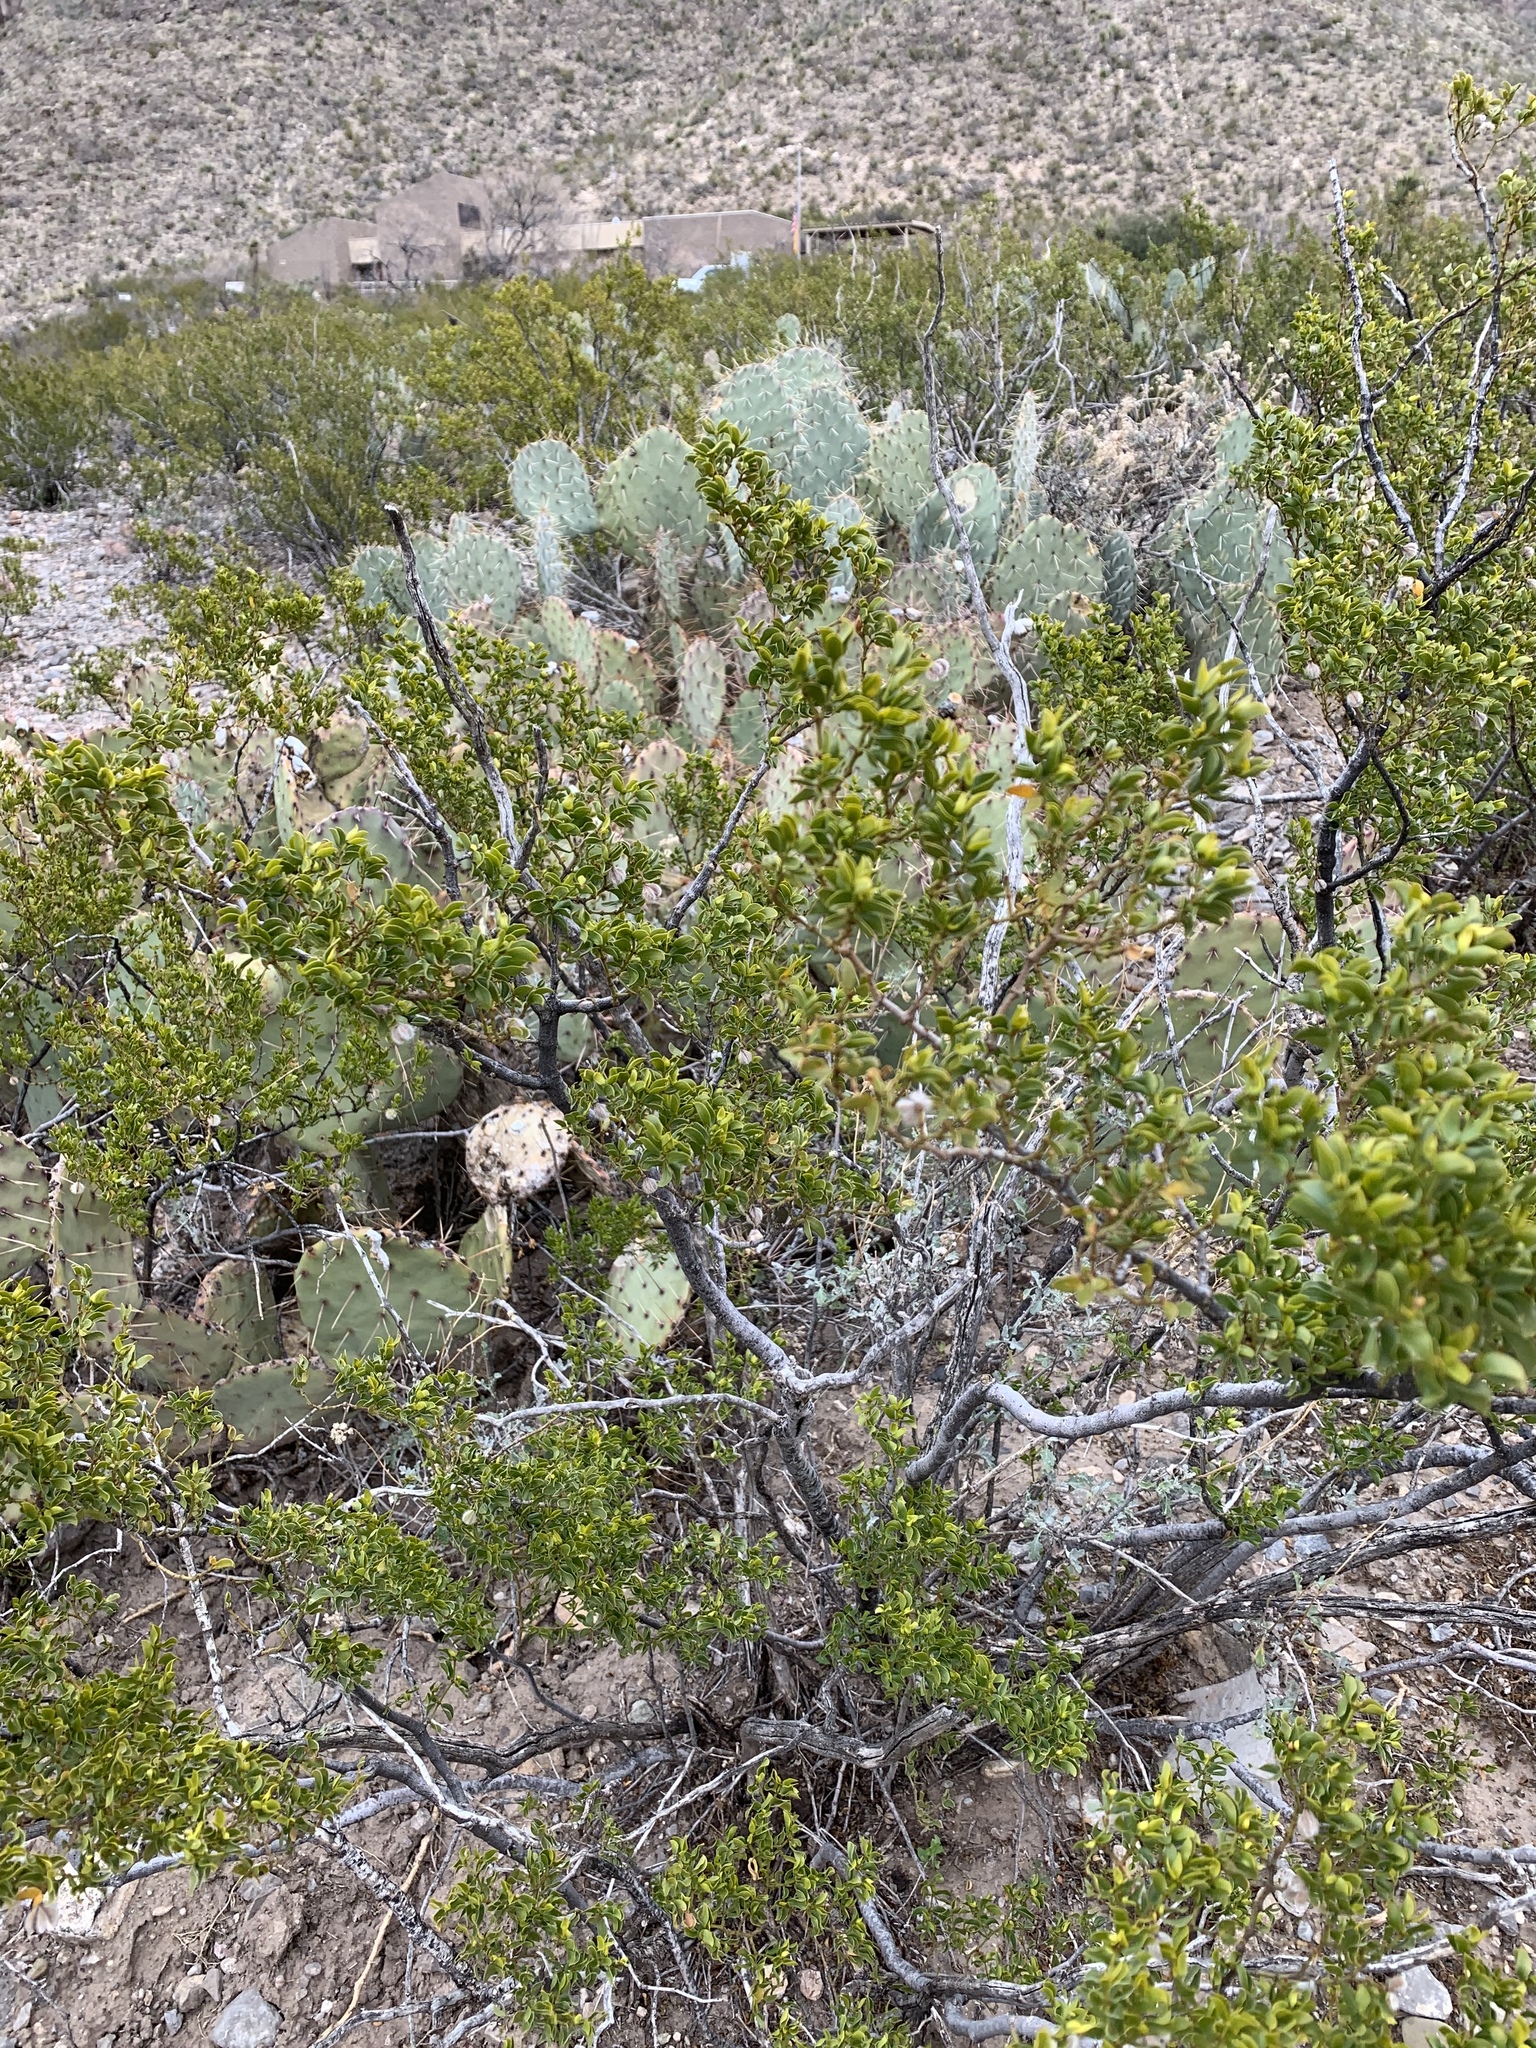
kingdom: Plantae
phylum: Tracheophyta
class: Magnoliopsida
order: Zygophyllales
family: Zygophyllaceae
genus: Larrea
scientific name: Larrea tridentata
